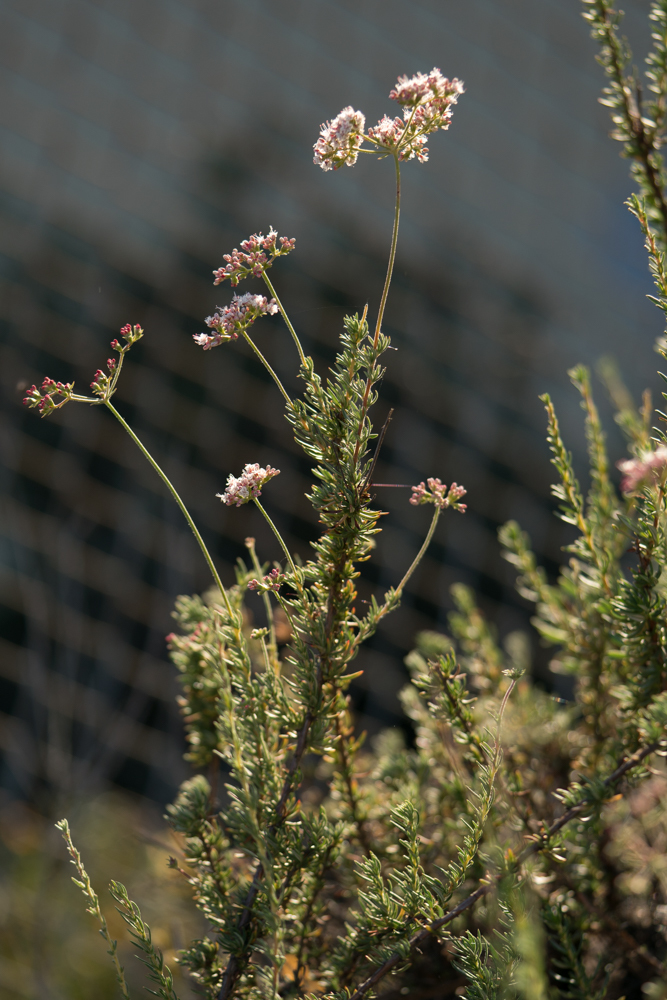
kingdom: Plantae
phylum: Tracheophyta
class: Magnoliopsida
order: Caryophyllales
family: Polygonaceae
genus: Eriogonum
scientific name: Eriogonum fasciculatum
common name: California wild buckwheat
